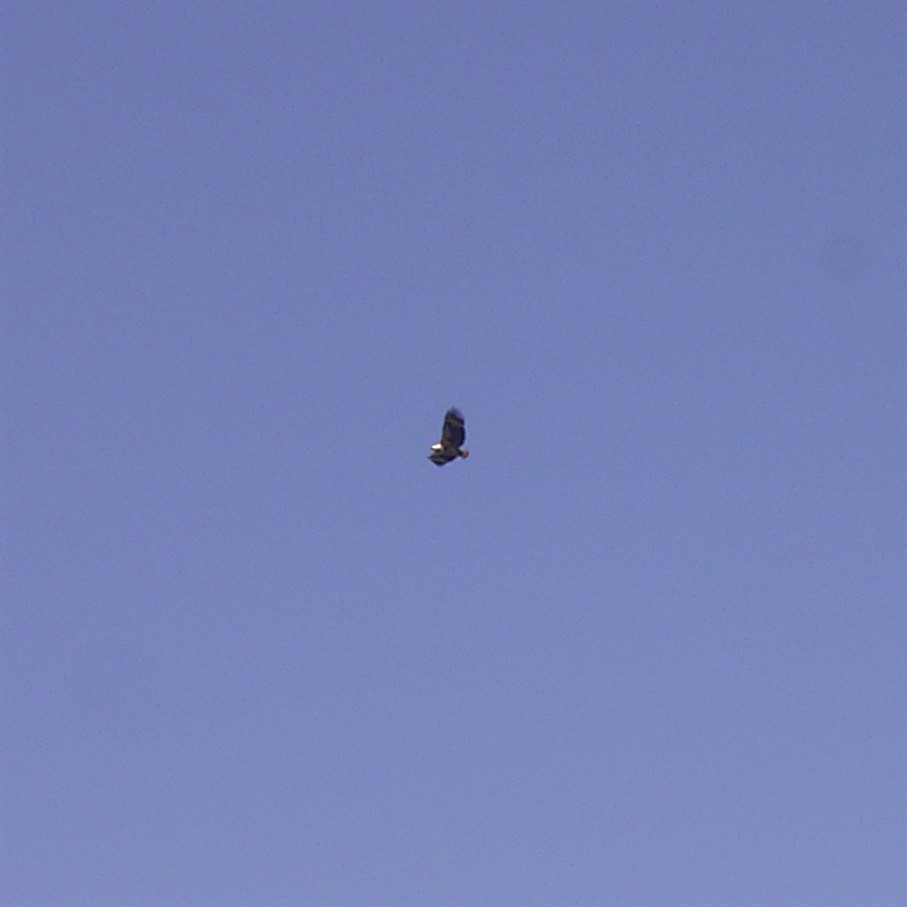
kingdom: Animalia
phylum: Chordata
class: Aves
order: Accipitriformes
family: Accipitridae
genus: Haliaeetus
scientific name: Haliaeetus vocifer
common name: African fish eagle
